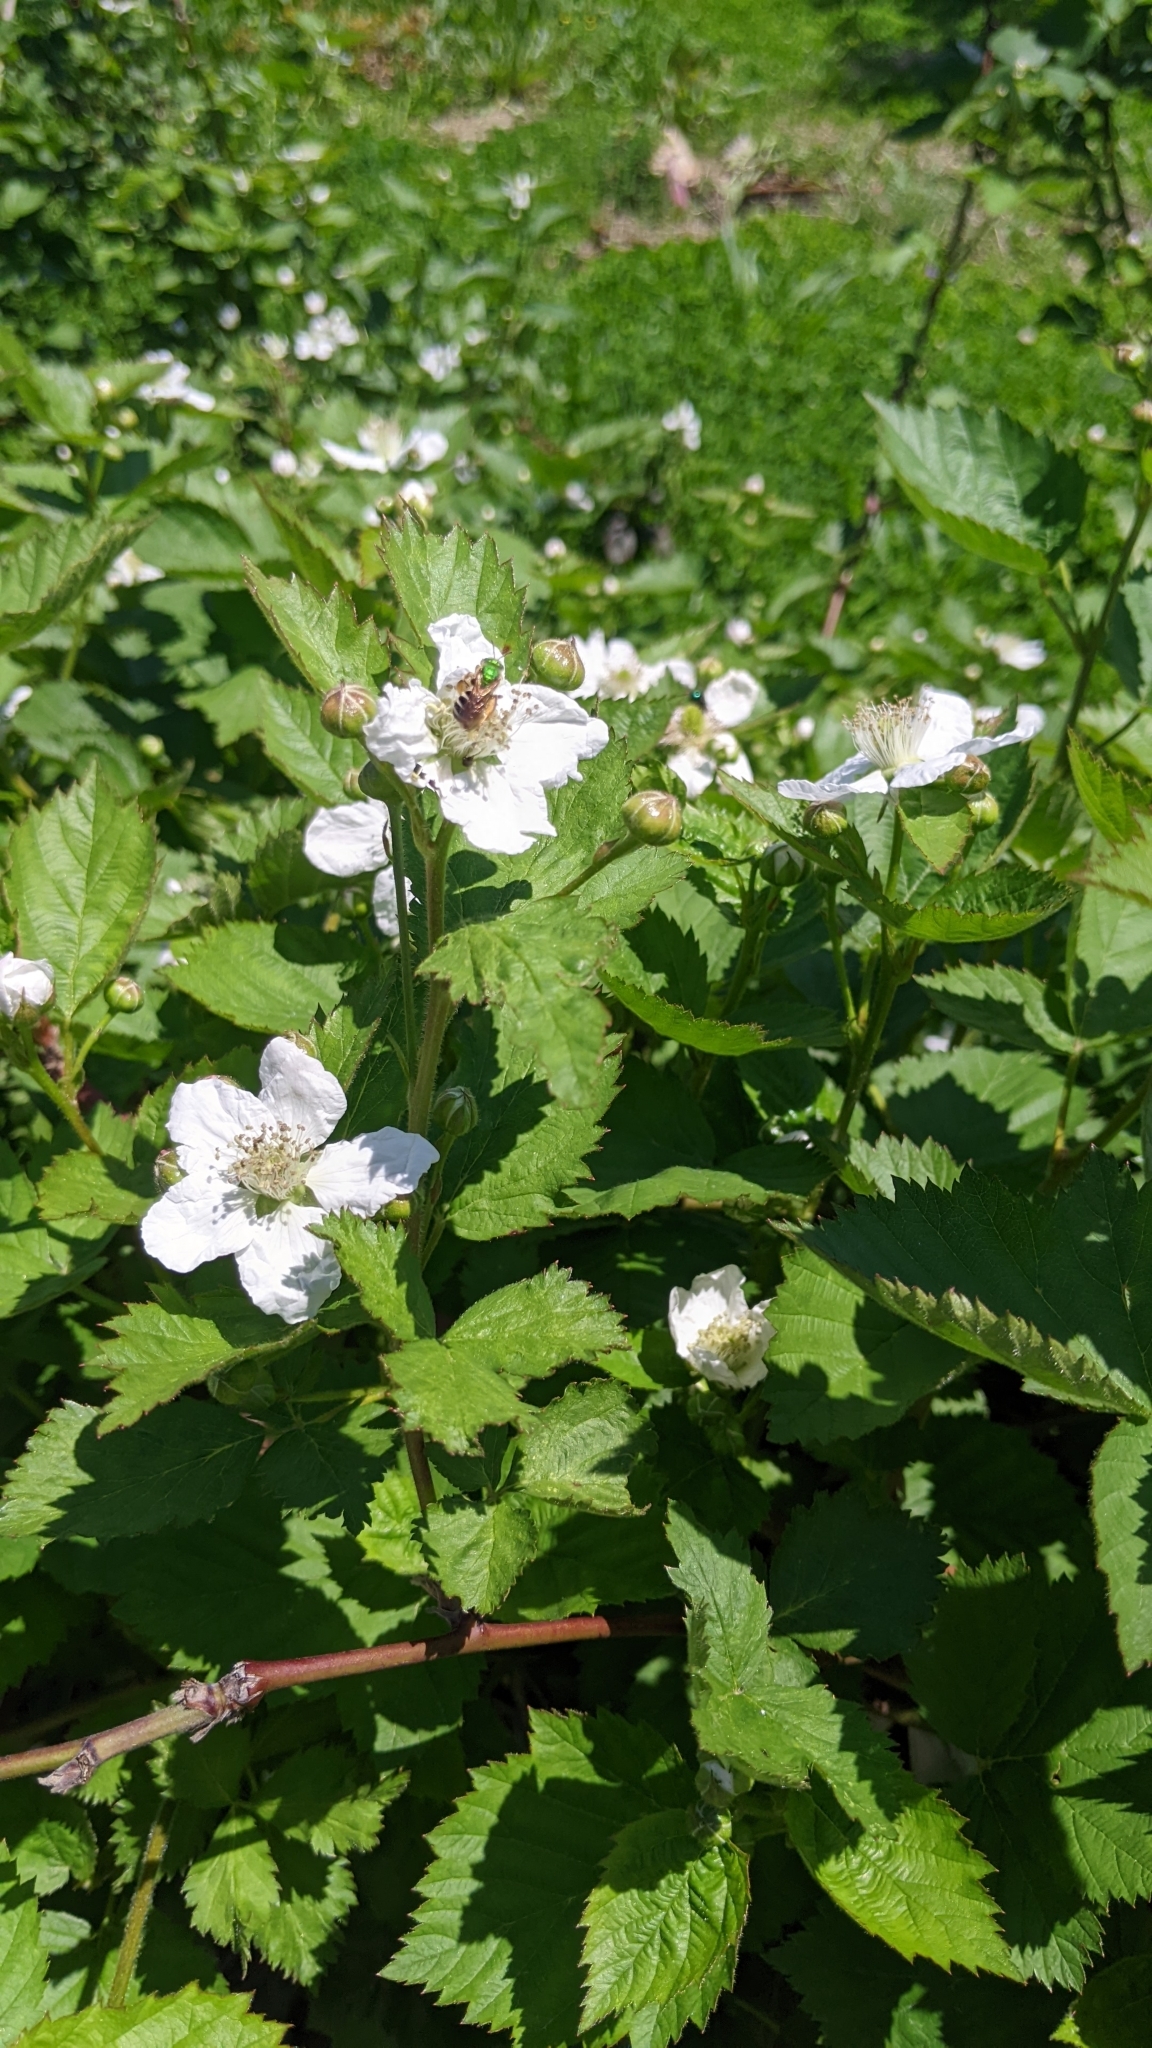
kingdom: Animalia
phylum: Arthropoda
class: Insecta
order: Hymenoptera
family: Halictidae
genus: Agapostemon
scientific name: Agapostemon virescens
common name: Bicolored striped sweat bee
